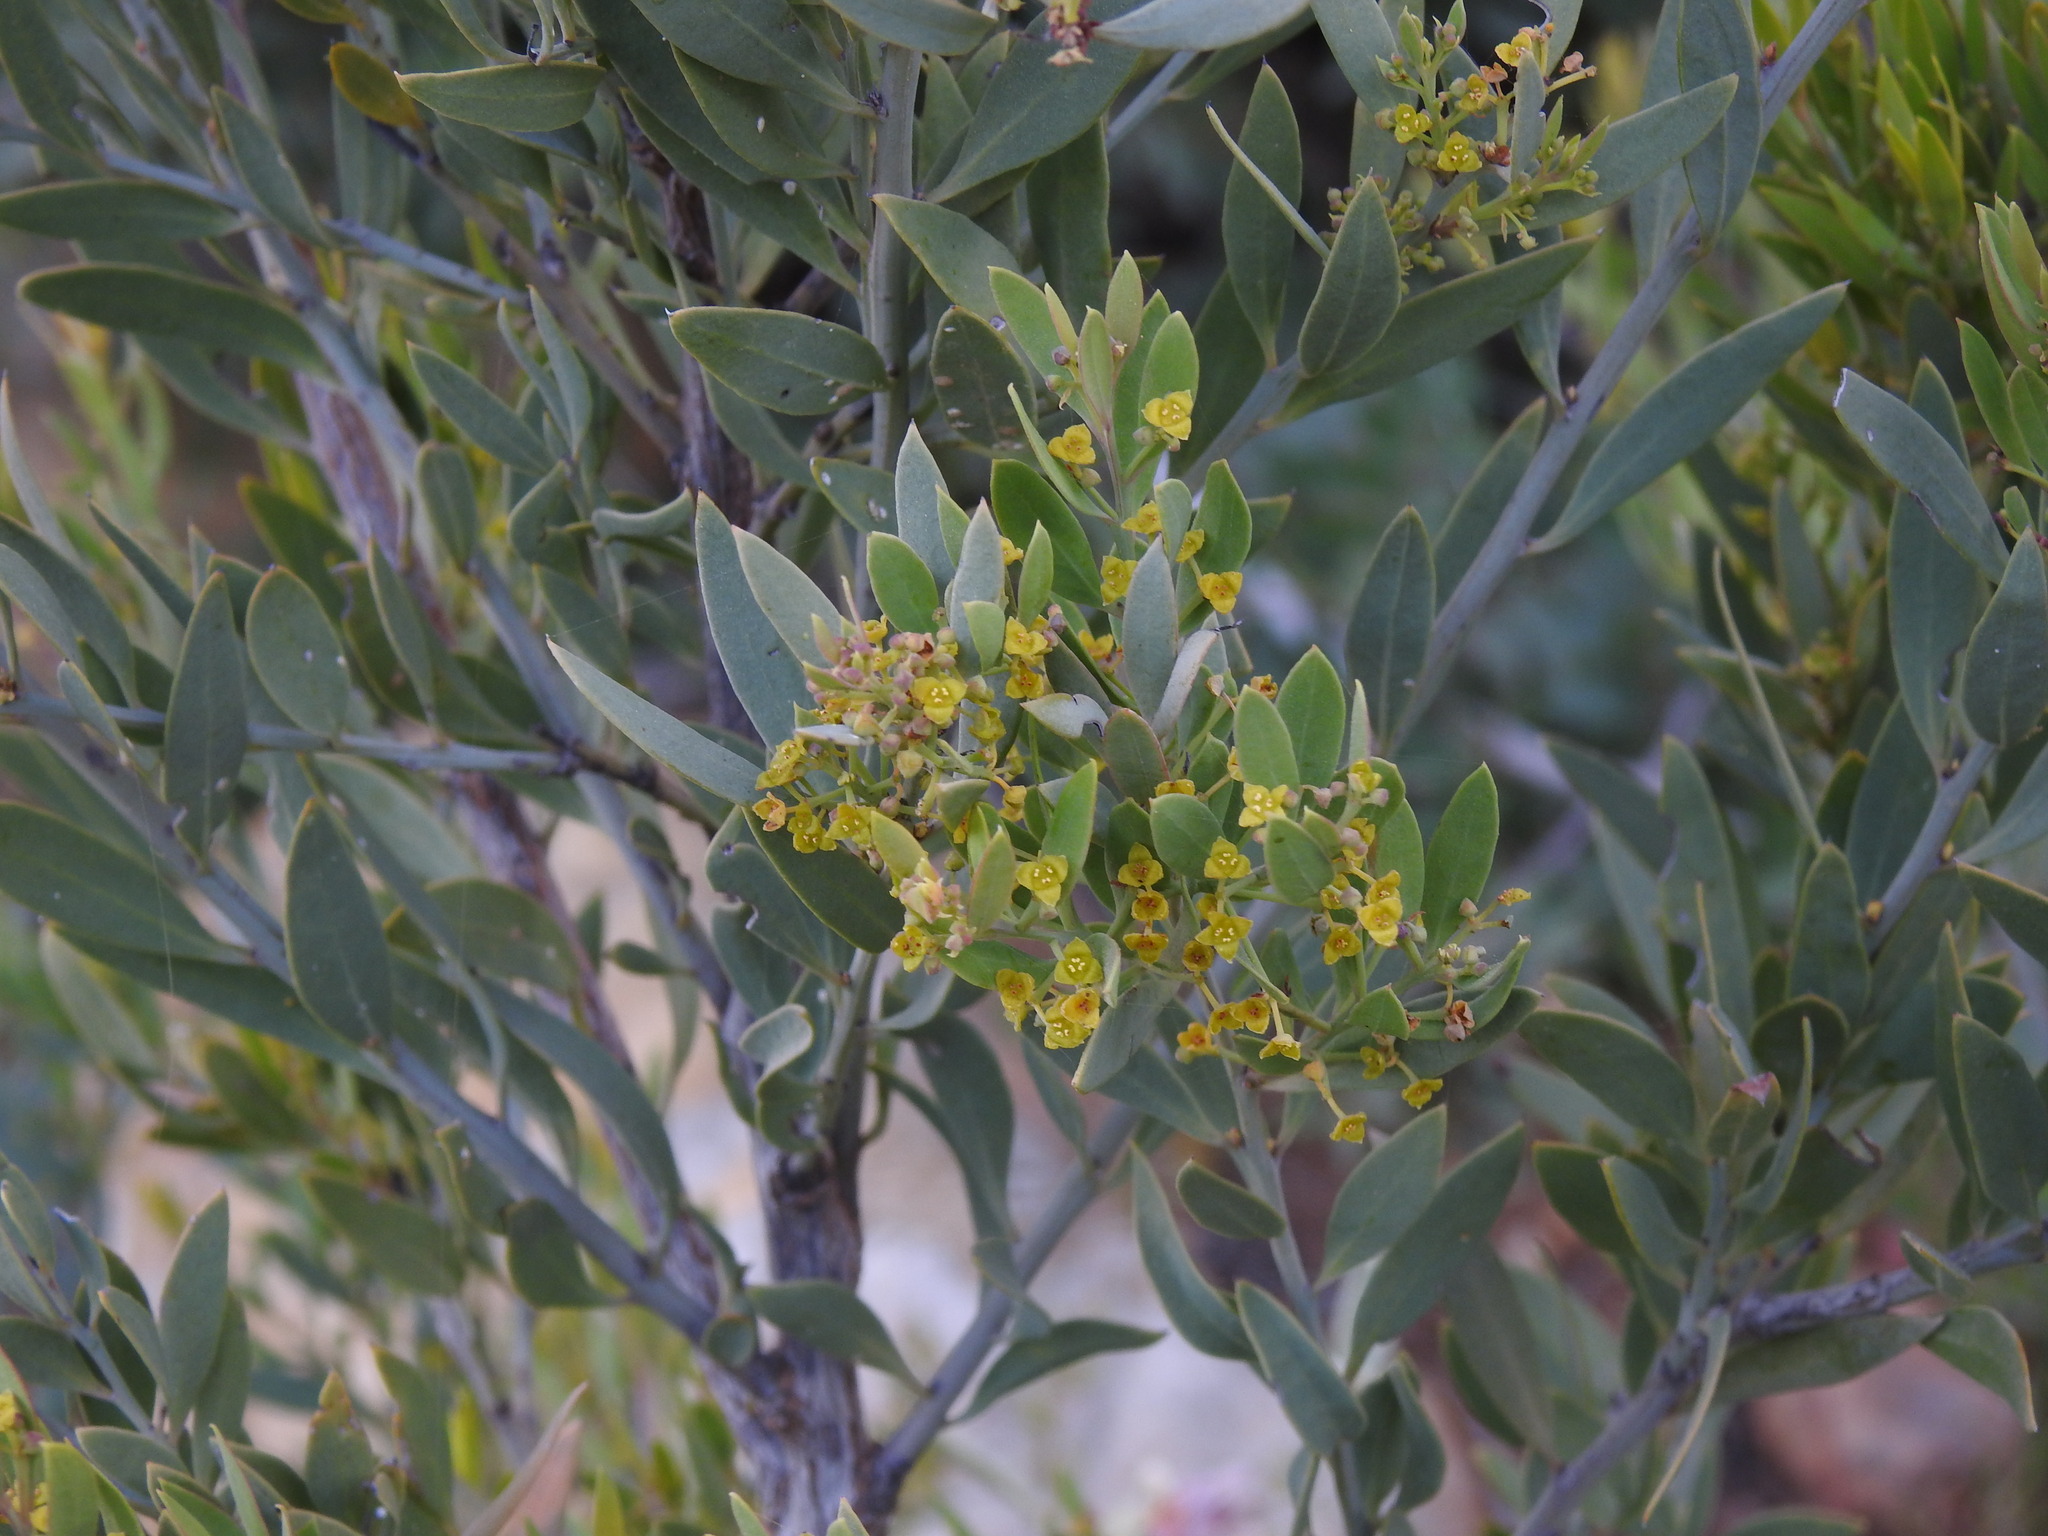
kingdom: Plantae
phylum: Tracheophyta
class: Magnoliopsida
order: Santalales
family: Santalaceae
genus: Osyris
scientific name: Osyris lanceolata
